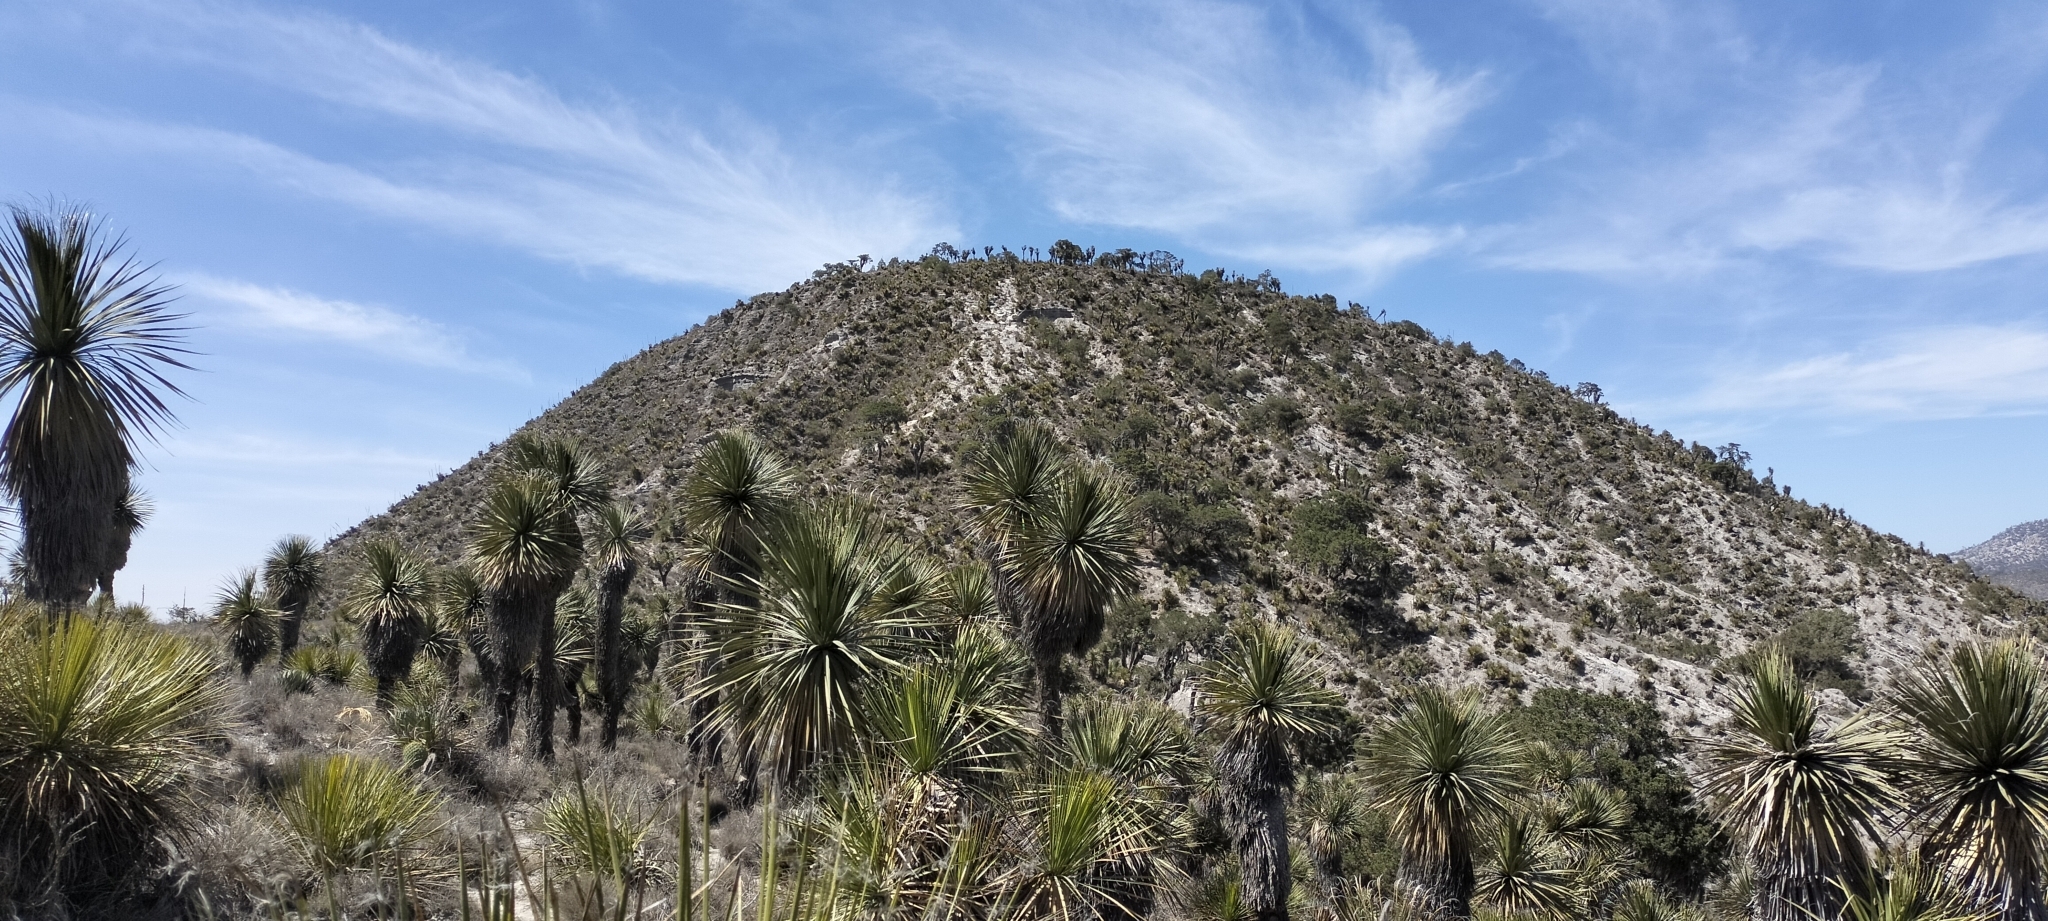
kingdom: Plantae
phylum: Tracheophyta
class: Liliopsida
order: Asparagales
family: Asparagaceae
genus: Nolina
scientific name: Nolina parviflora
